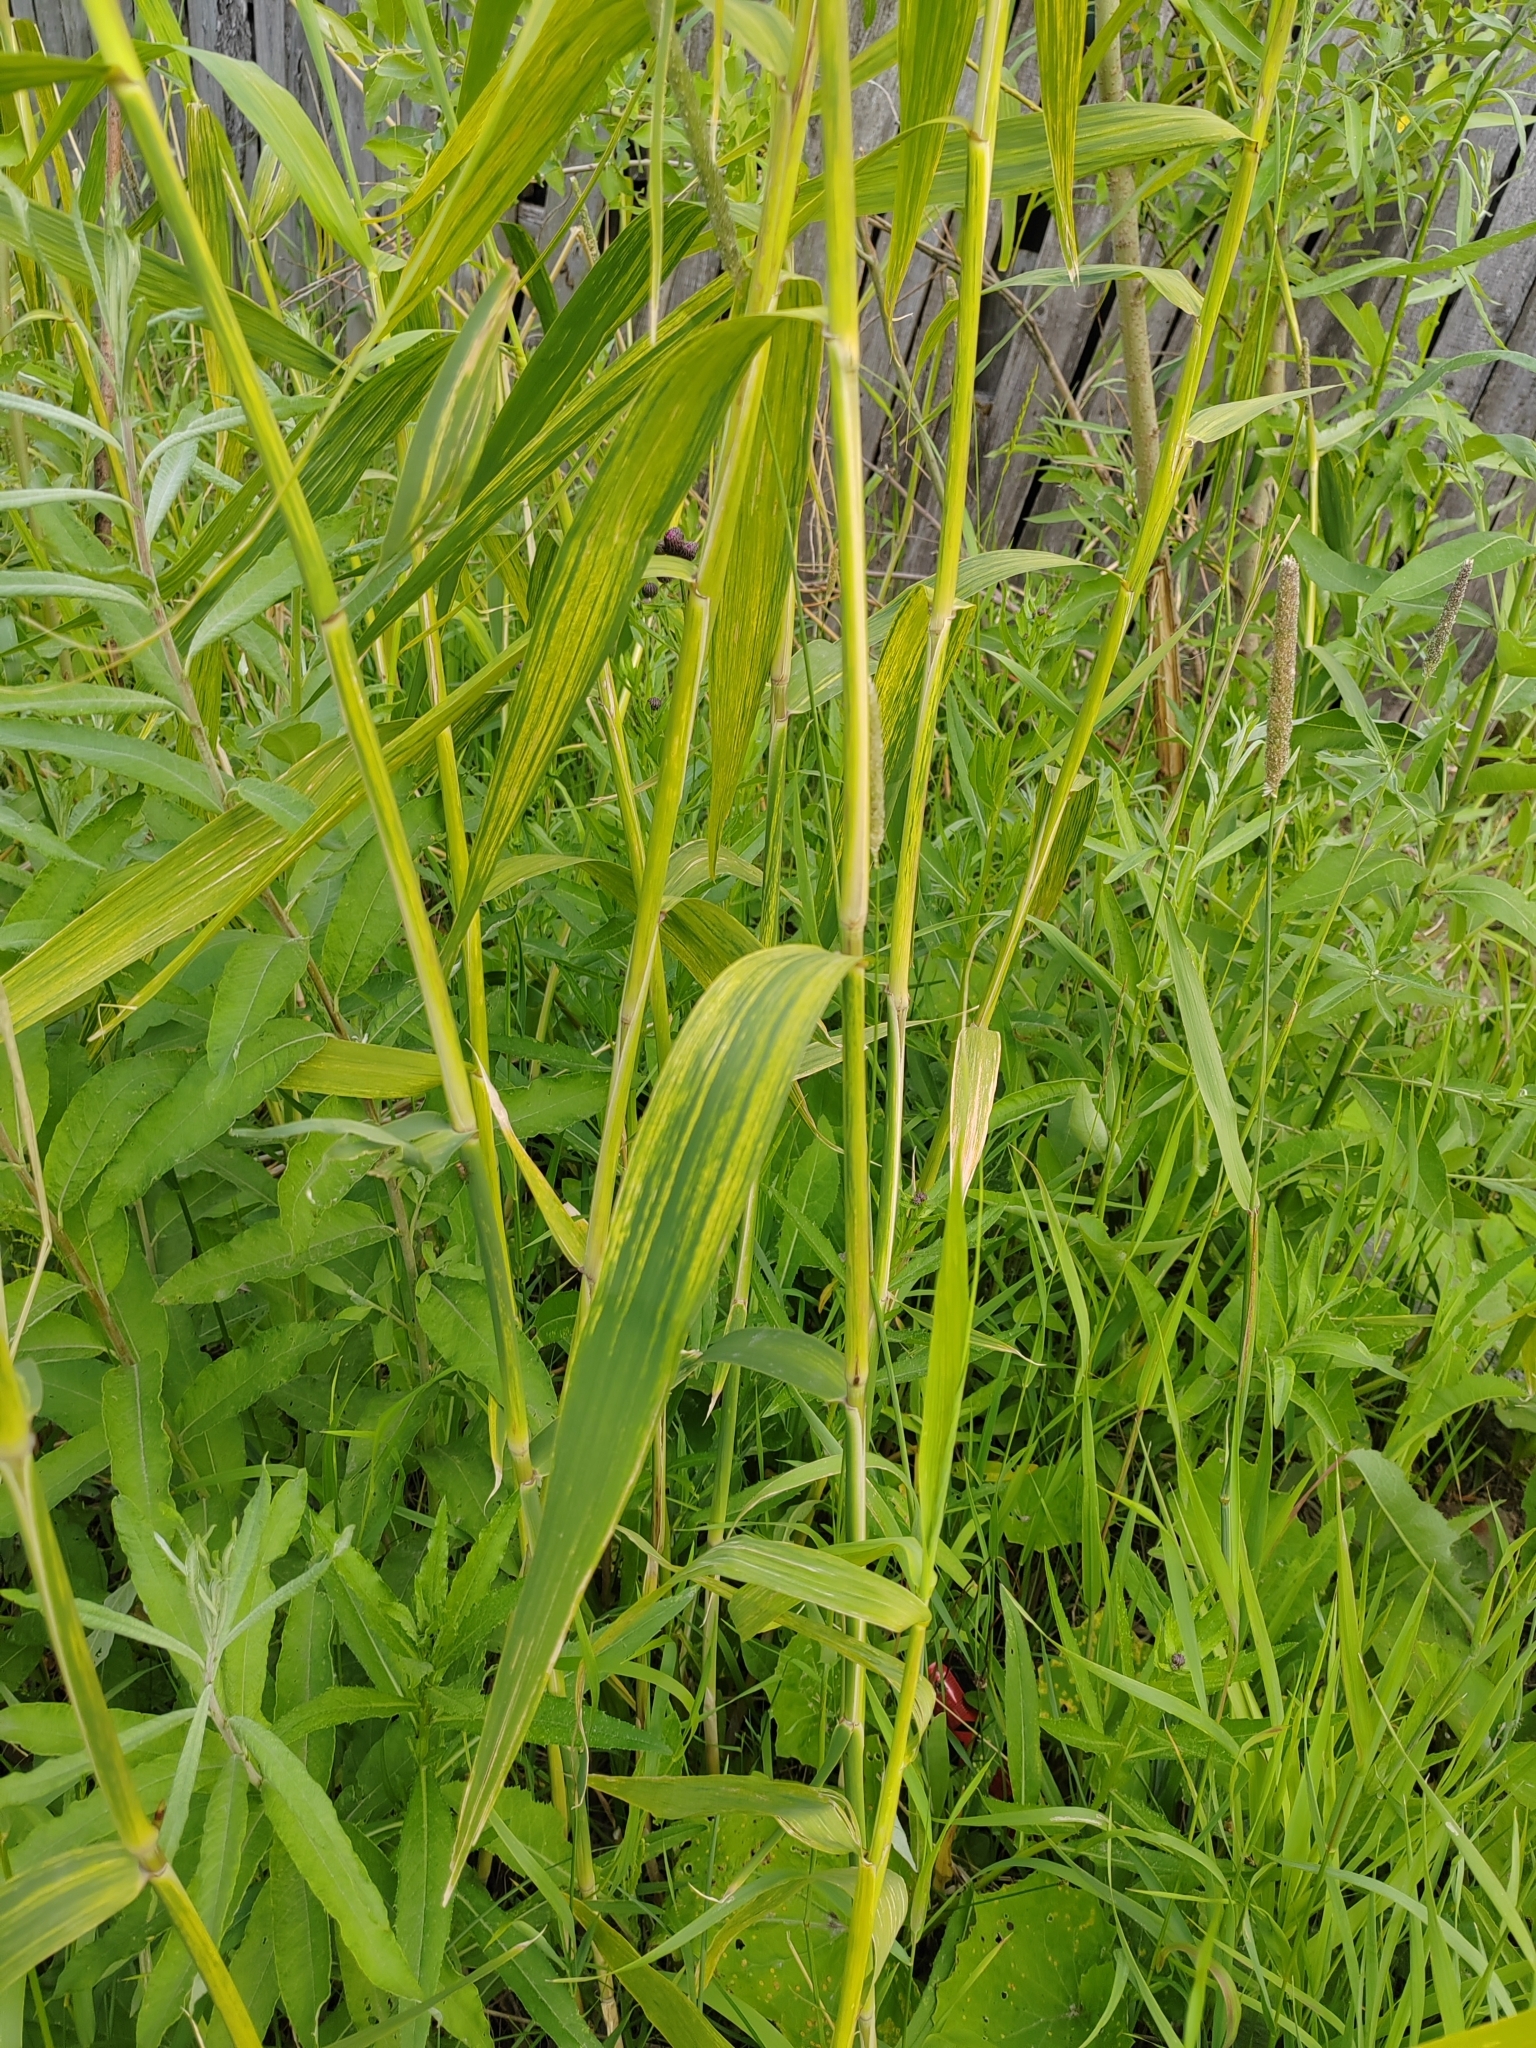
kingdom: Plantae
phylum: Tracheophyta
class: Liliopsida
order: Poales
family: Poaceae
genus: Phragmites
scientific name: Phragmites australis
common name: Common reed
